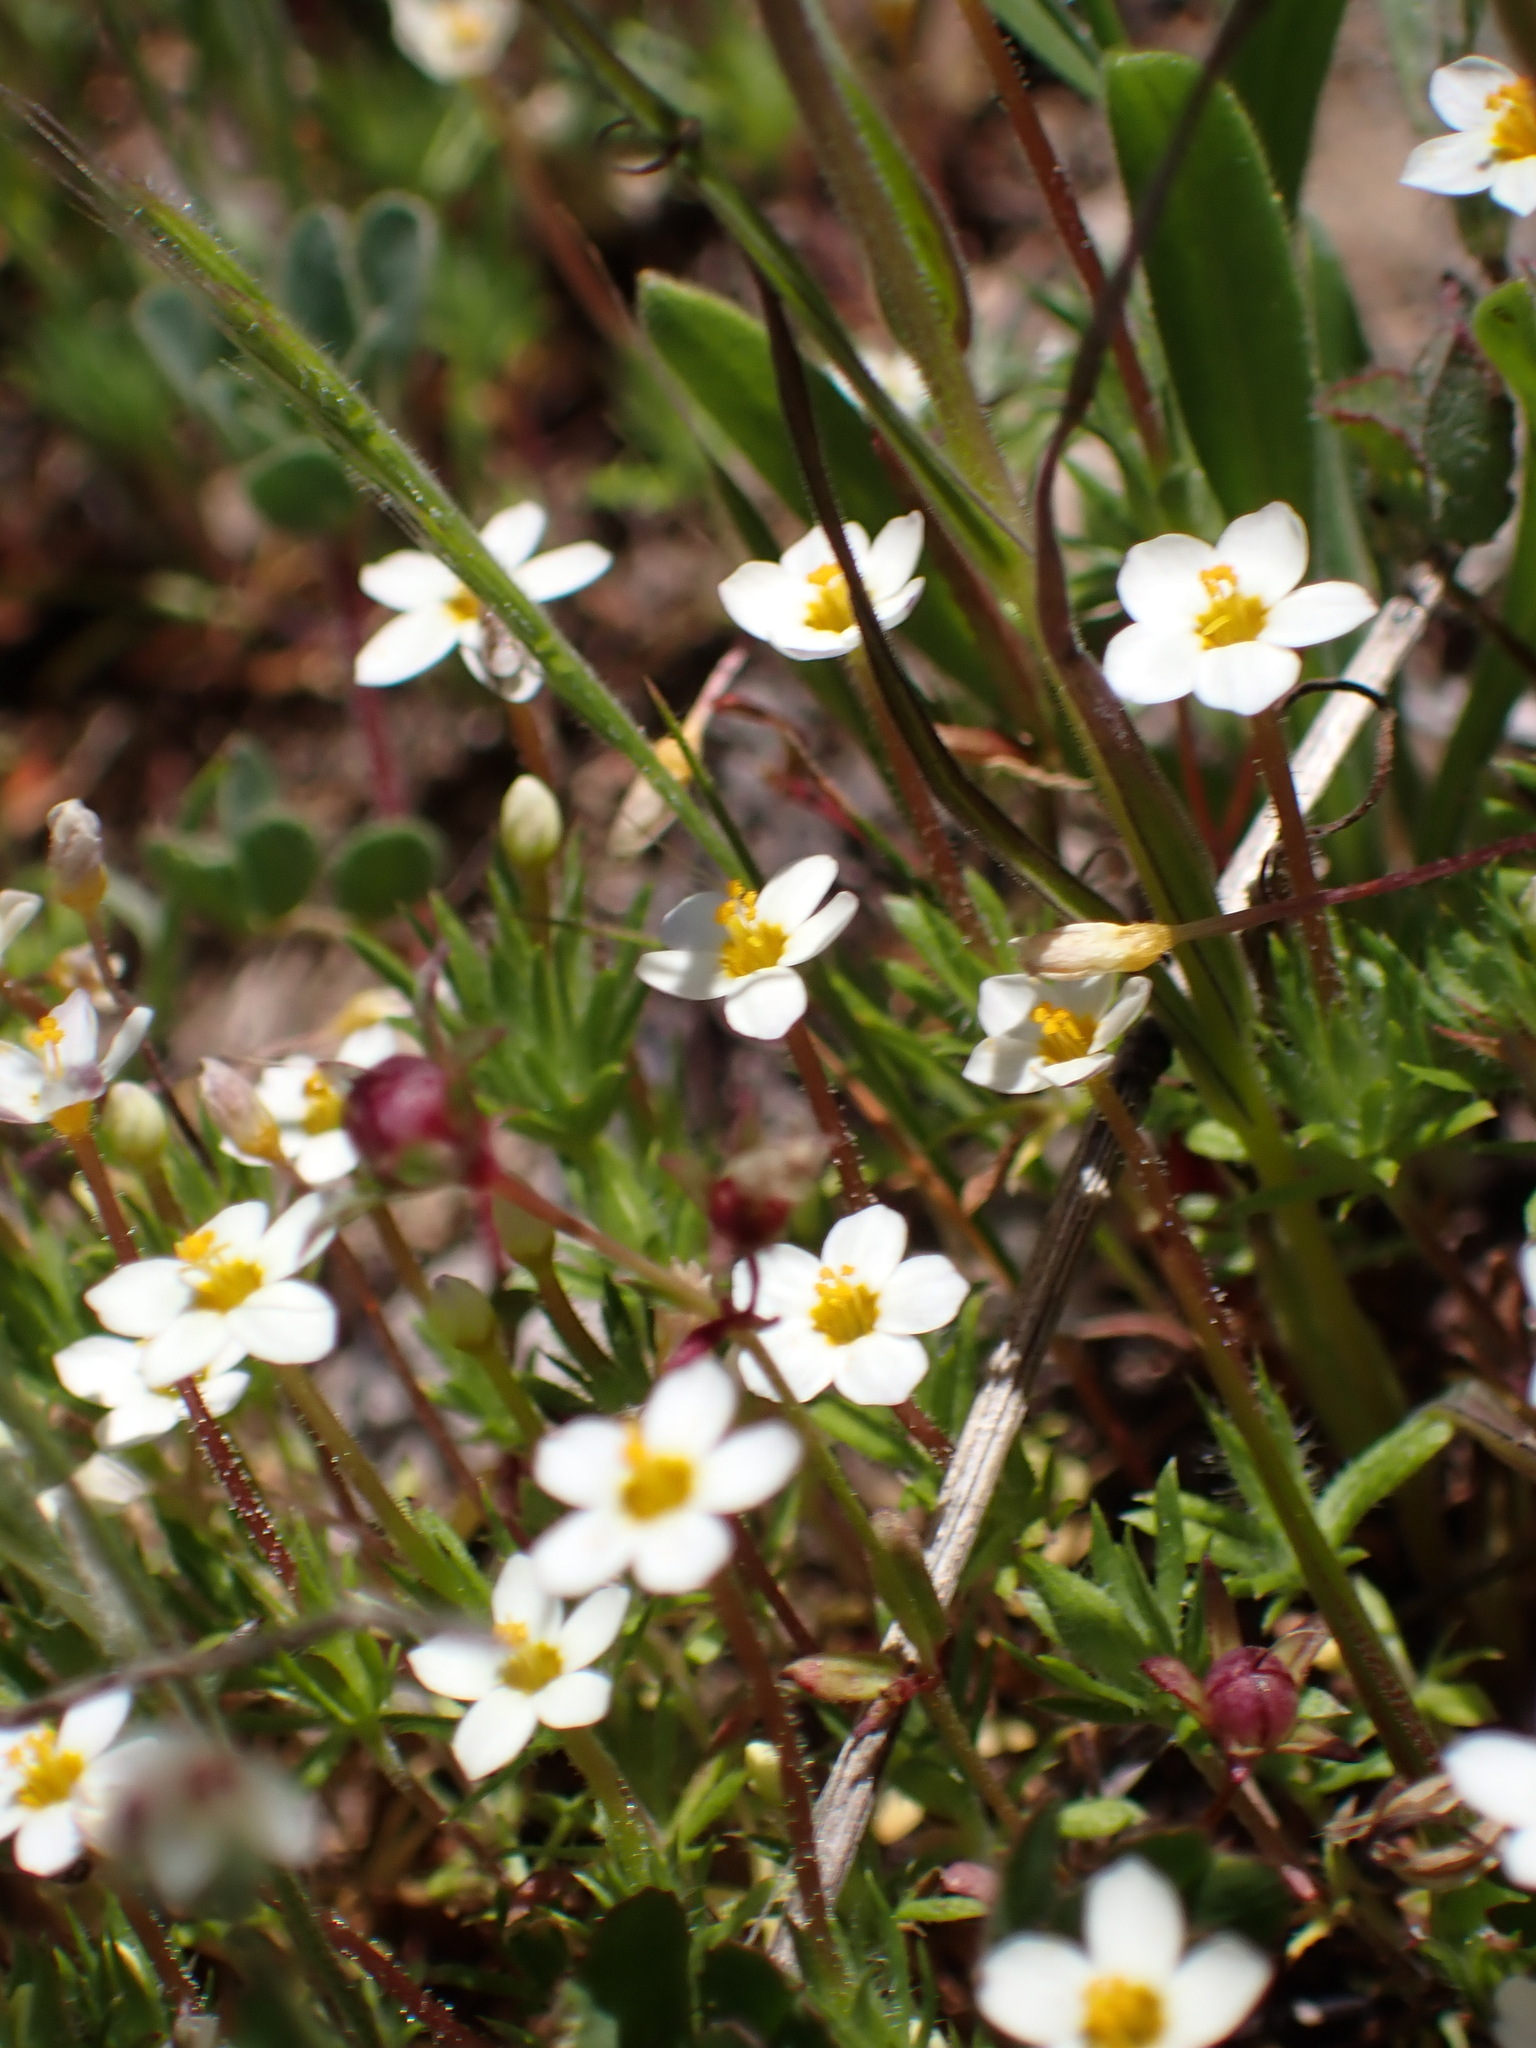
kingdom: Plantae
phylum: Tracheophyta
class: Magnoliopsida
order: Ericales
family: Polemoniaceae
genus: Leptosiphon
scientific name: Leptosiphon bicolor
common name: True babystars
